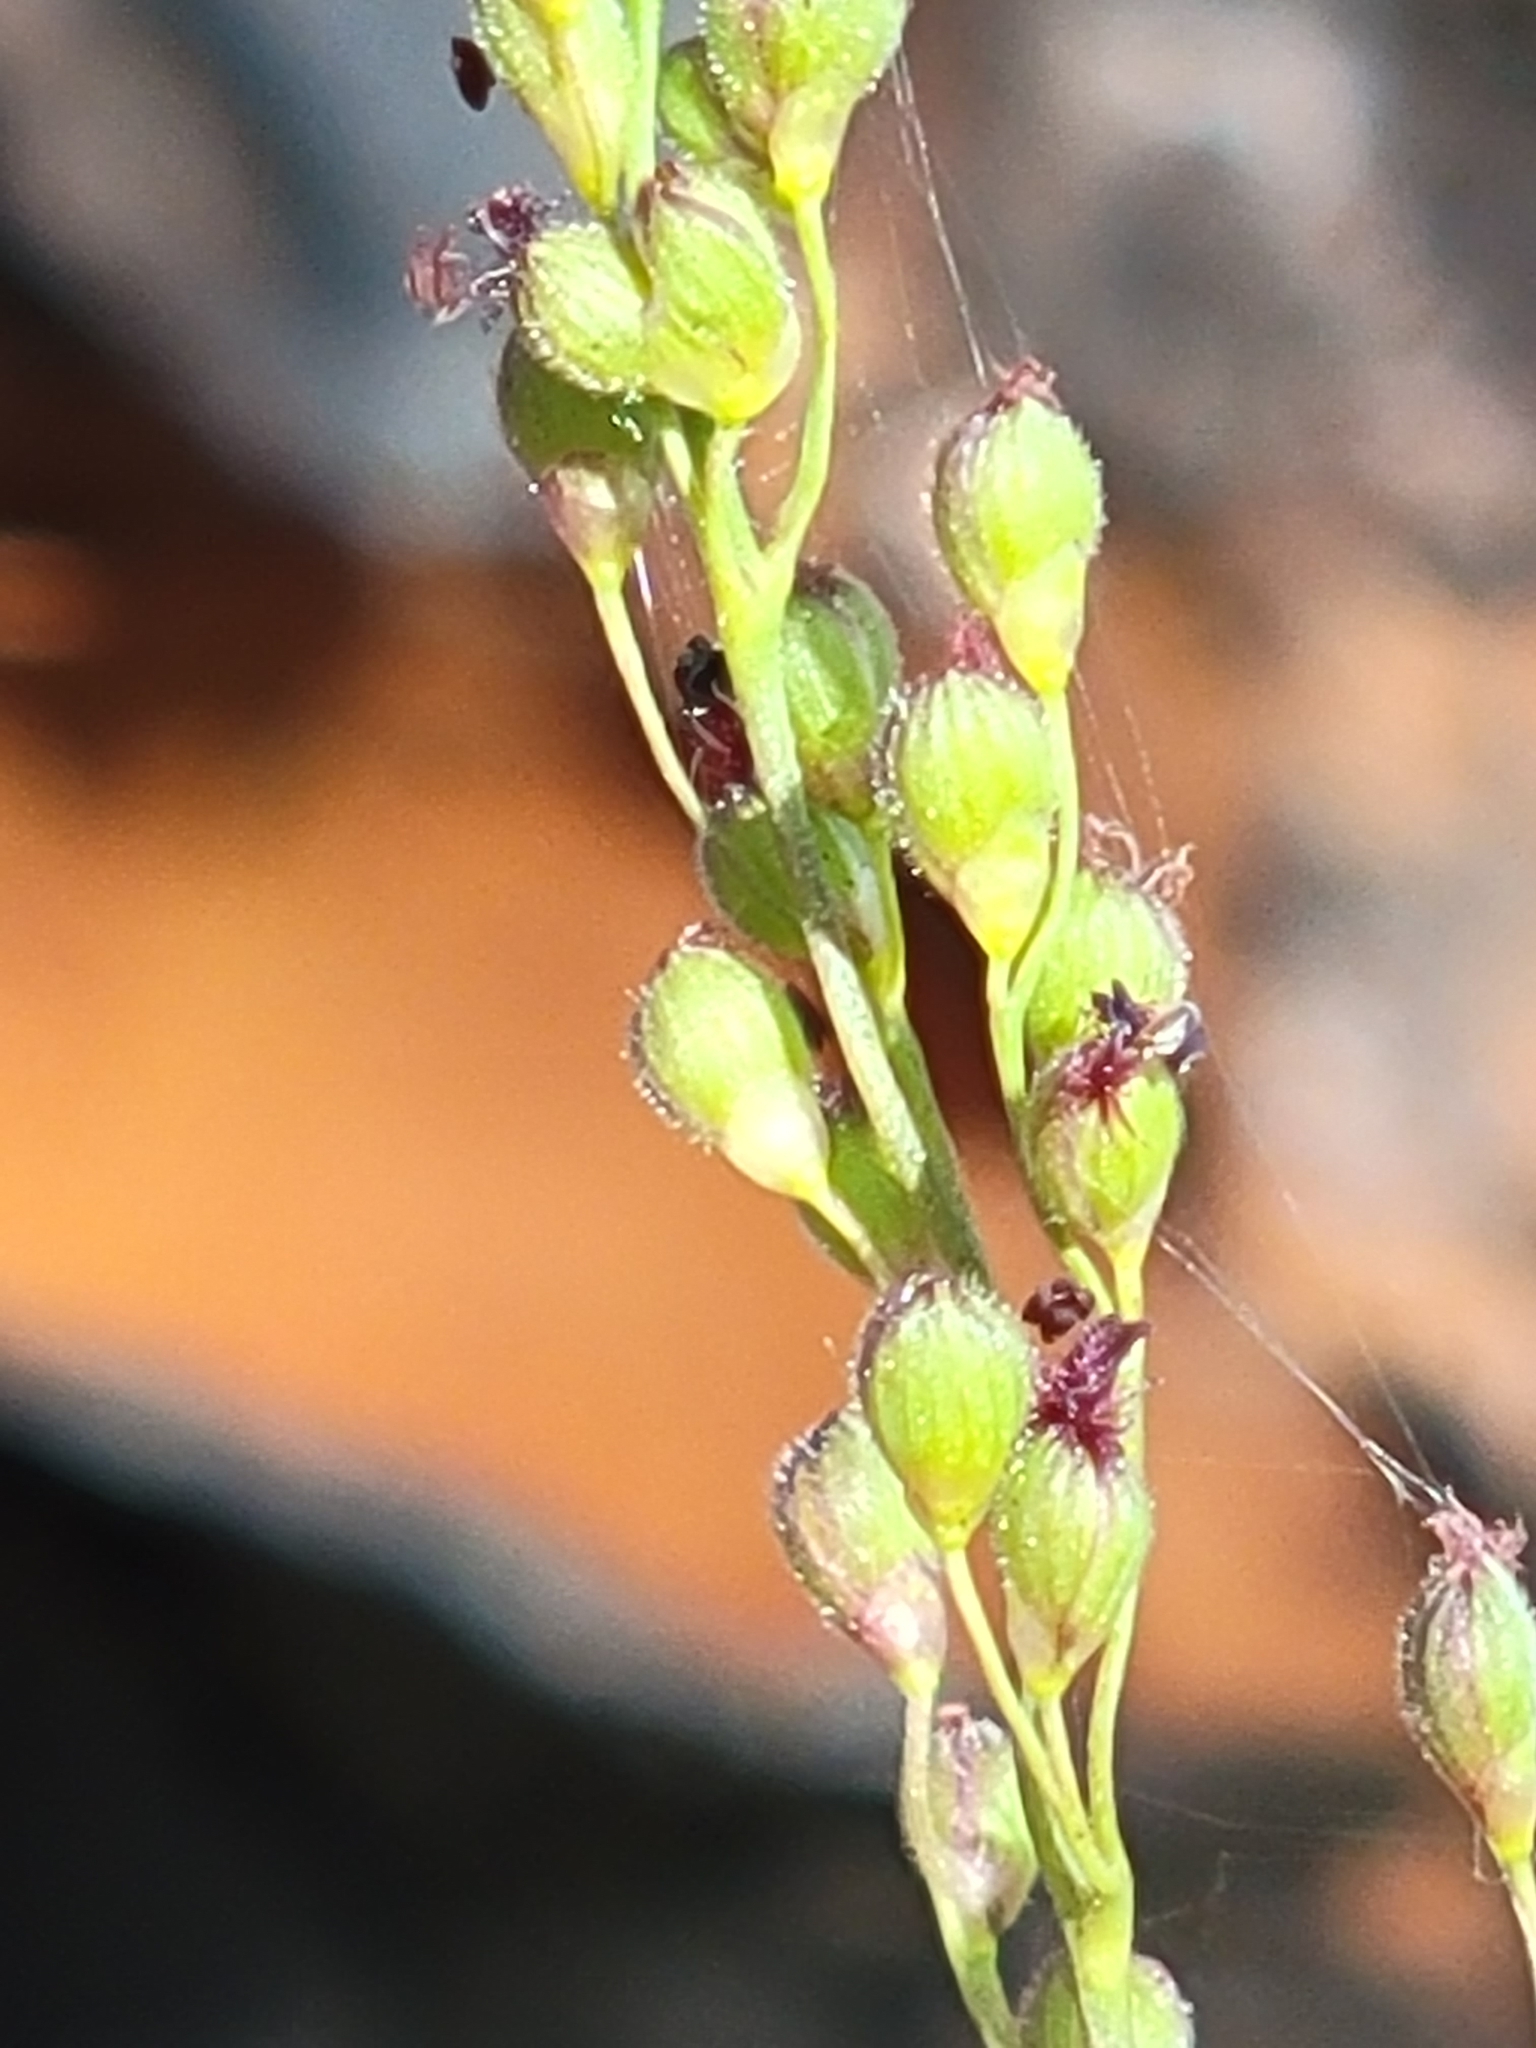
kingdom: Plantae
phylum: Tracheophyta
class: Liliopsida
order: Poales
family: Poaceae
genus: Dichanthelium
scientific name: Dichanthelium neuranthum
